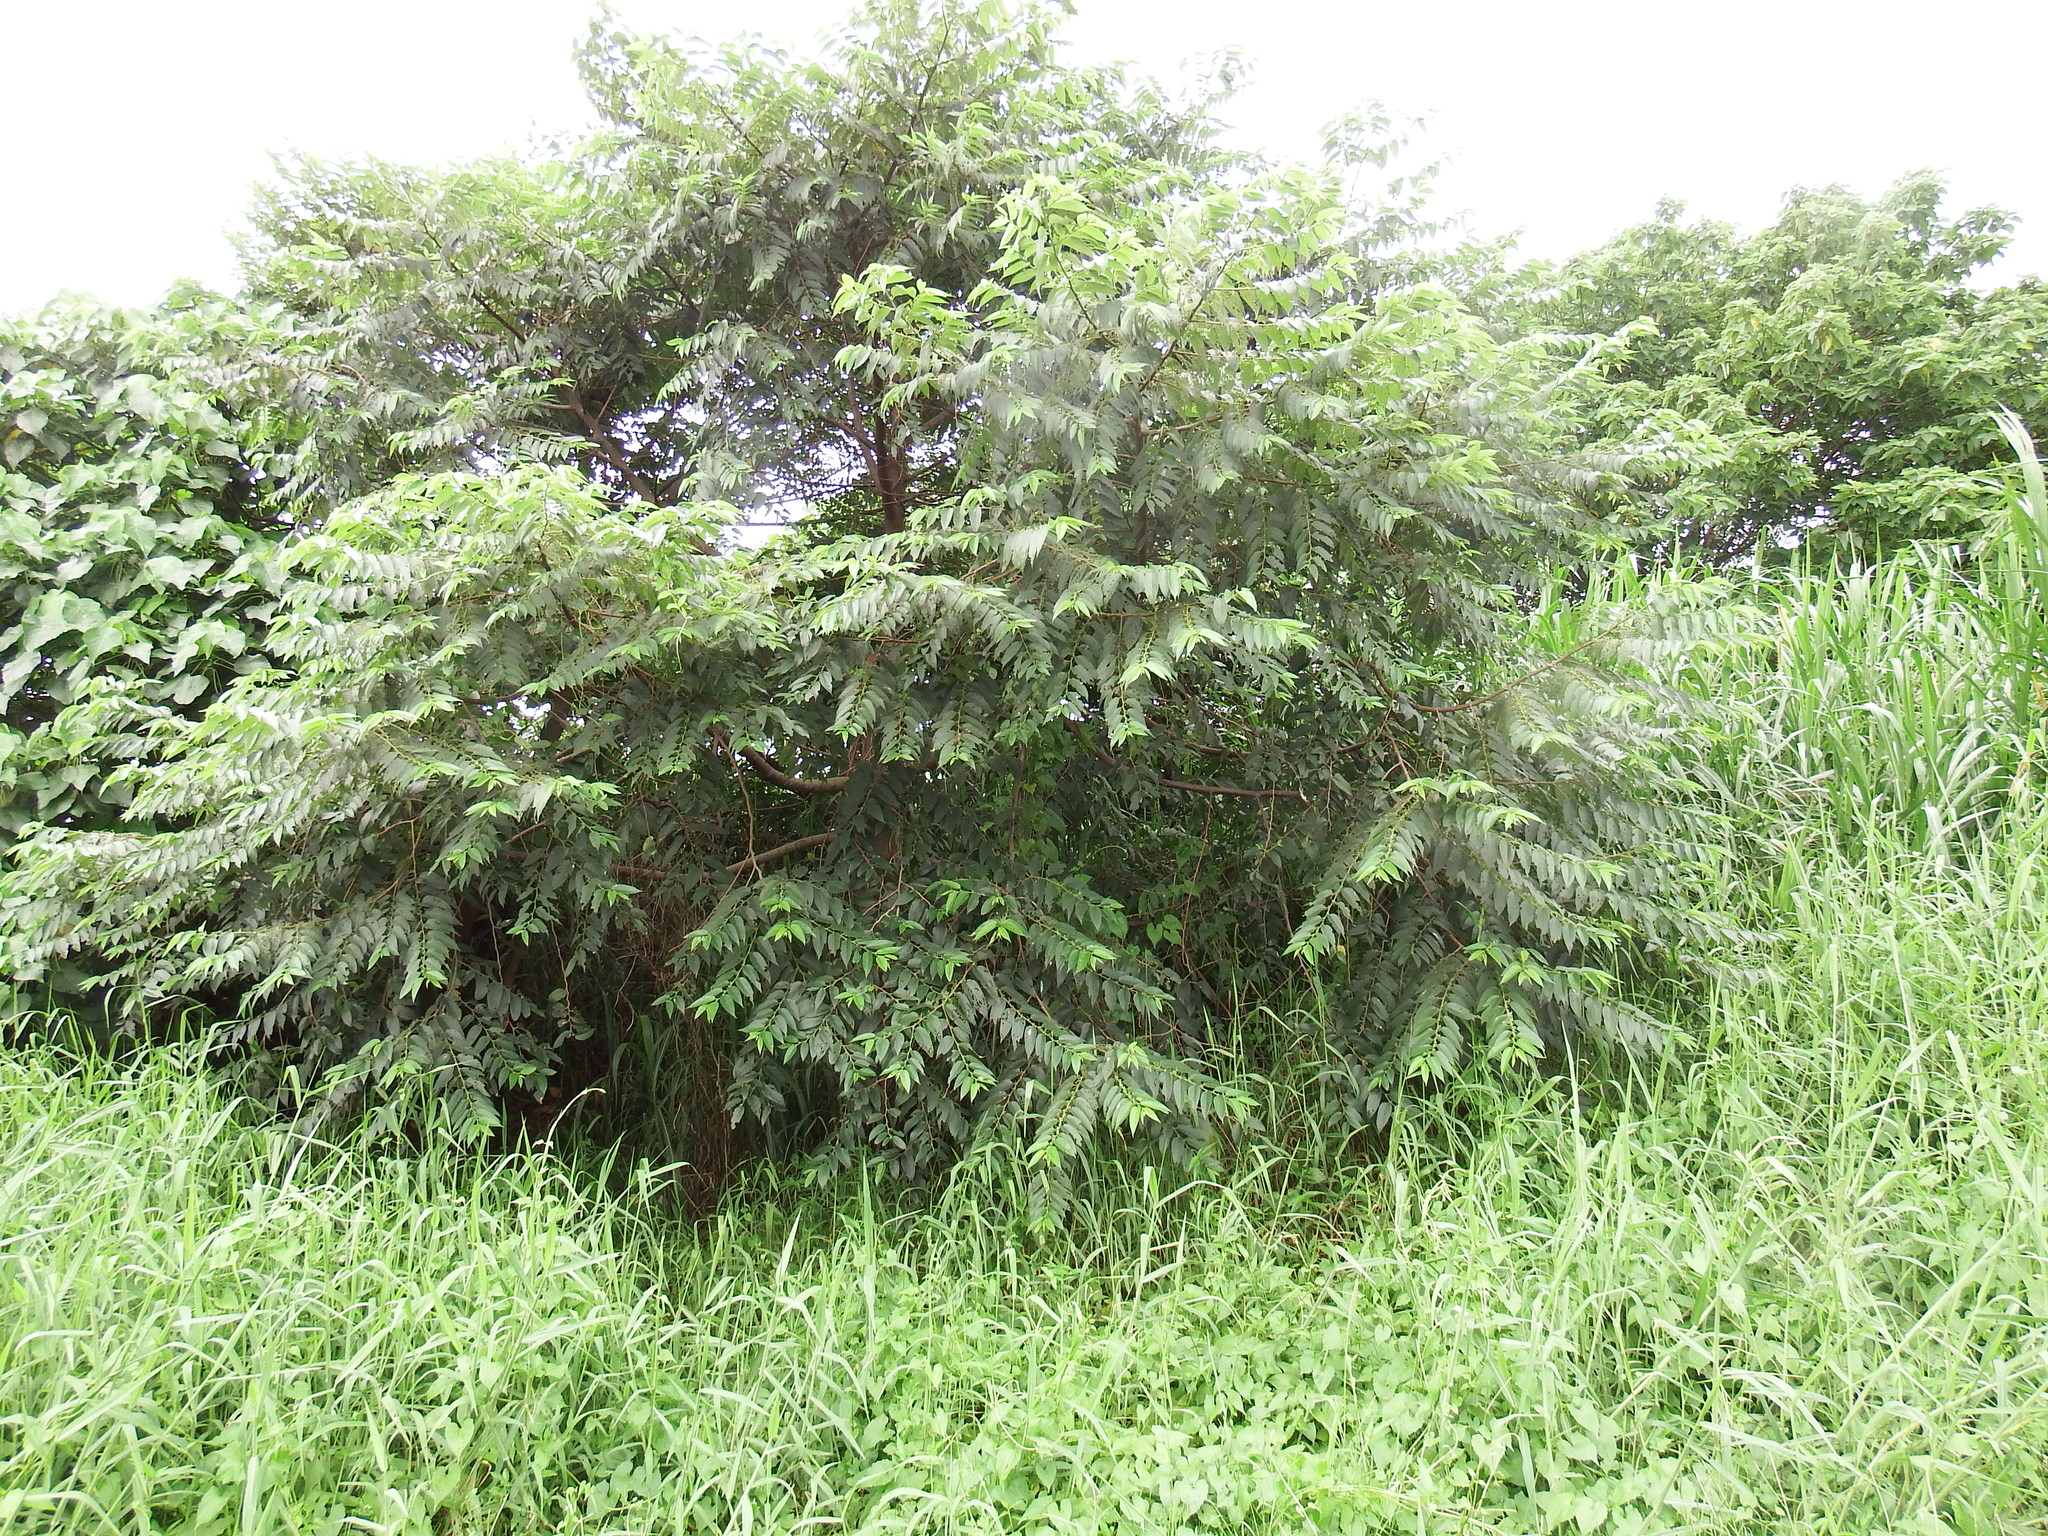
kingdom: Plantae
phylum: Tracheophyta
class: Magnoliopsida
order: Rosales
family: Cannabaceae
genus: Trema
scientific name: Trema orientale
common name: Indian charcoal tree
